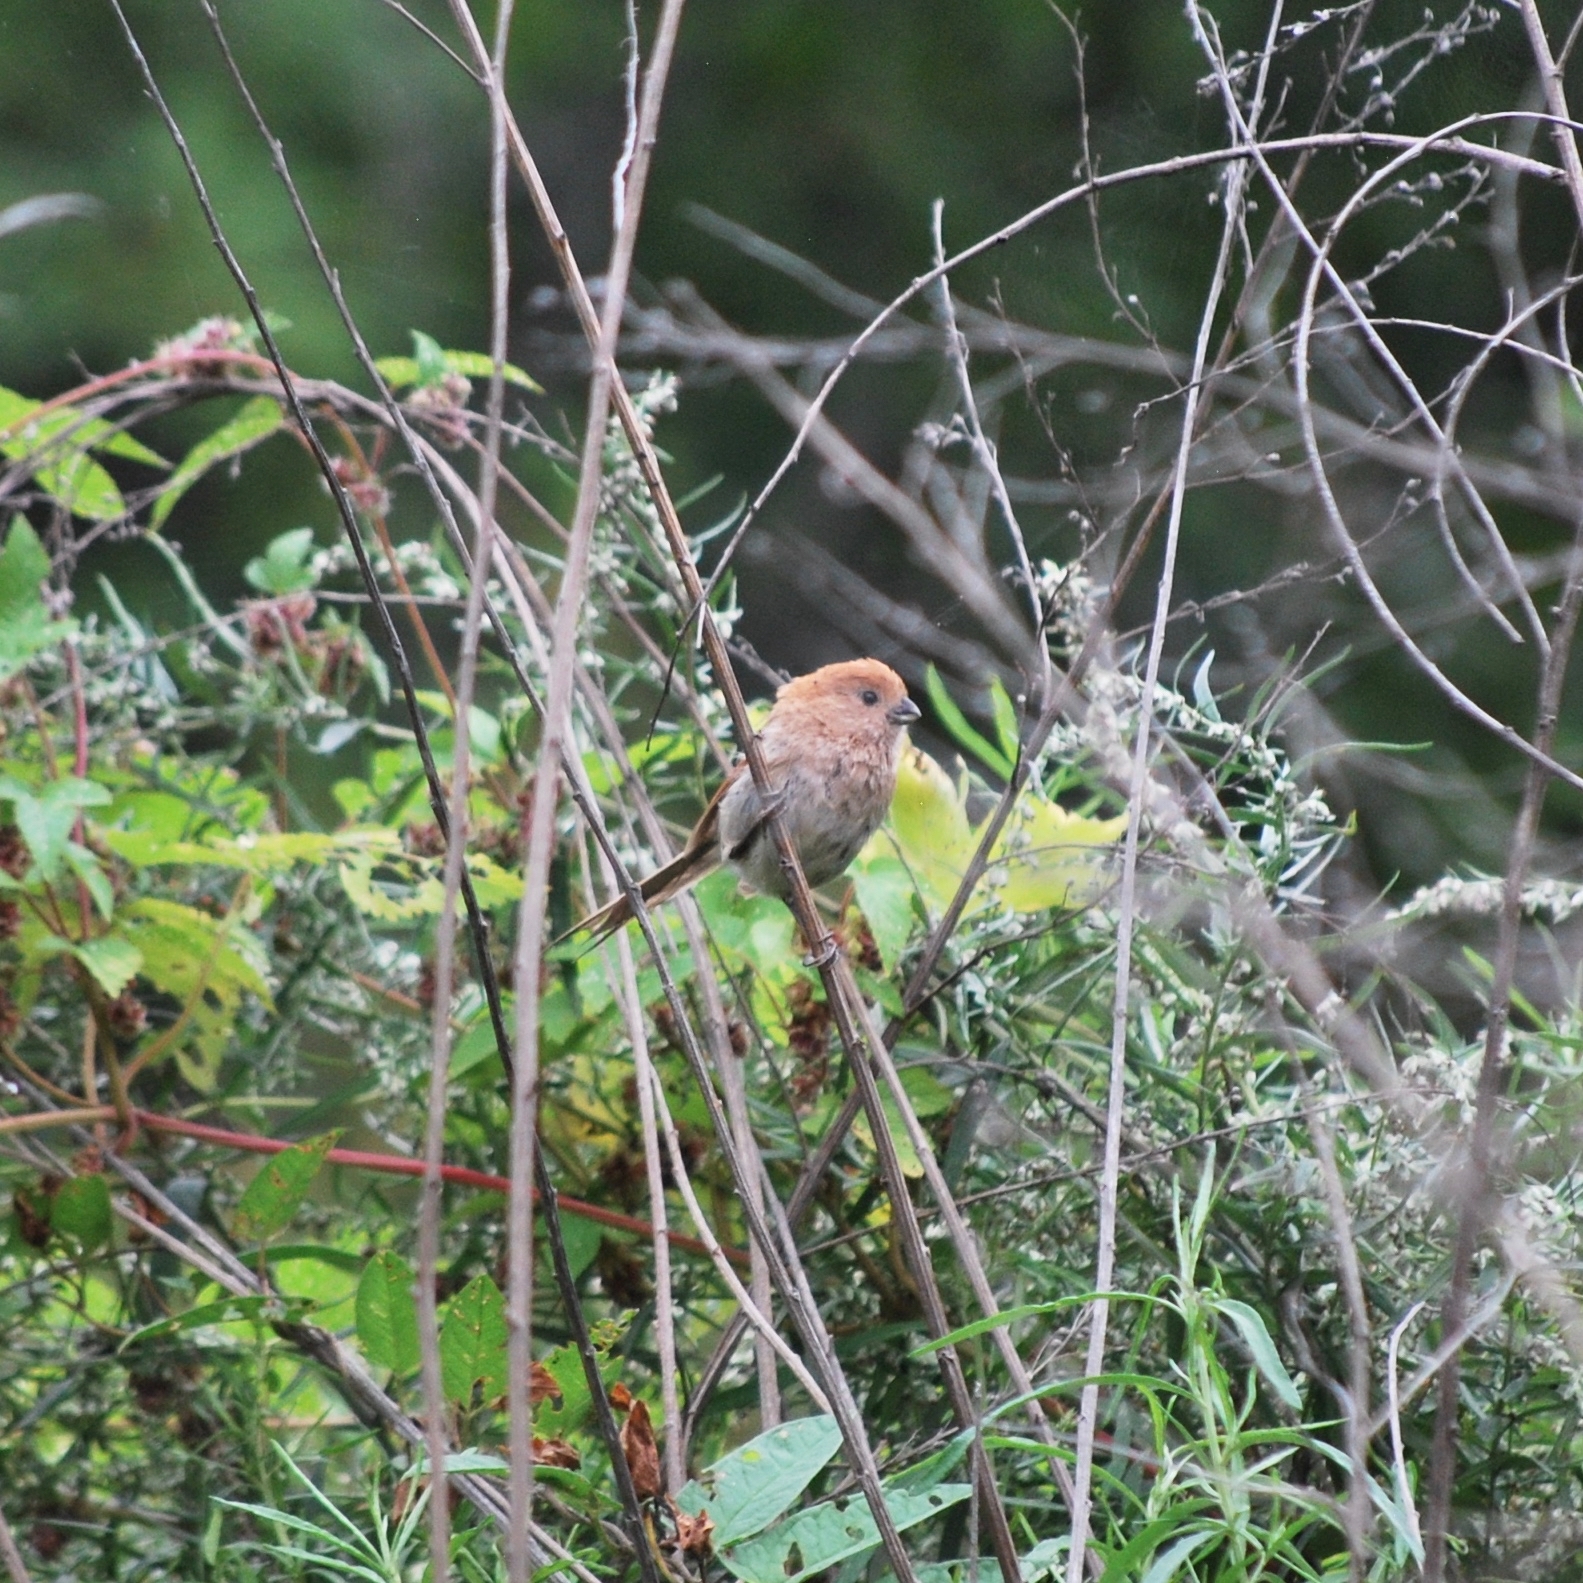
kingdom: Animalia
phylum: Chordata
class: Aves
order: Passeriformes
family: Sylviidae
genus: Sinosuthora
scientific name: Sinosuthora webbiana
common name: Vinous-throated parrotbill
